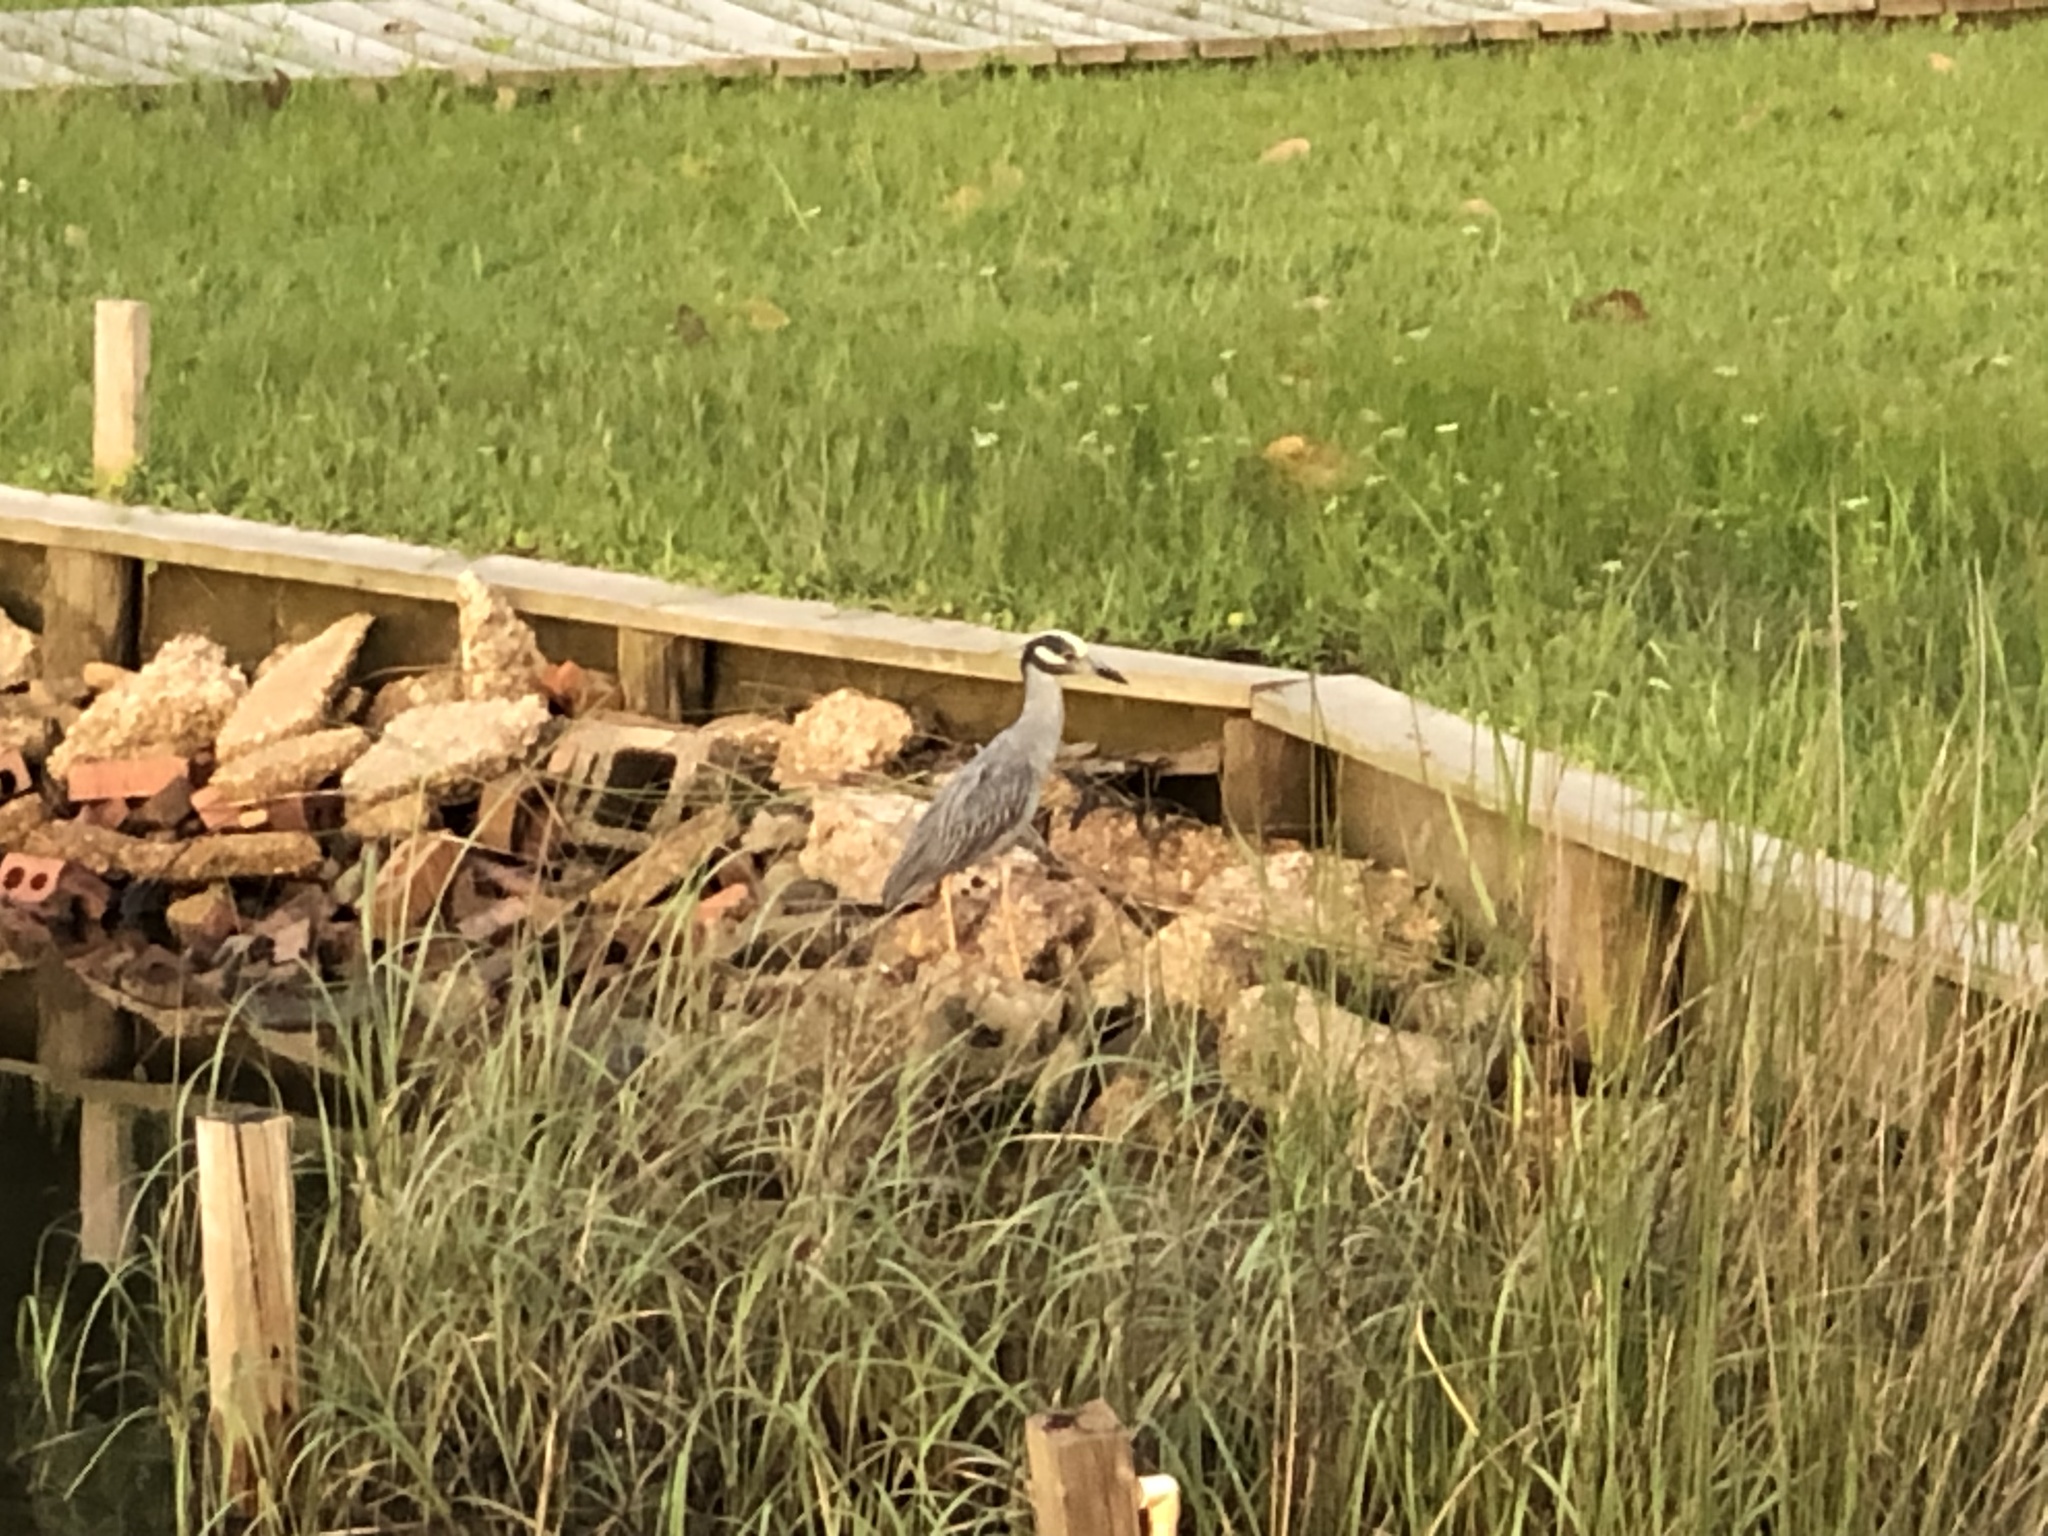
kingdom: Animalia
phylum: Chordata
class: Aves
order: Pelecaniformes
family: Ardeidae
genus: Nyctanassa
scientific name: Nyctanassa violacea
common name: Yellow-crowned night heron
